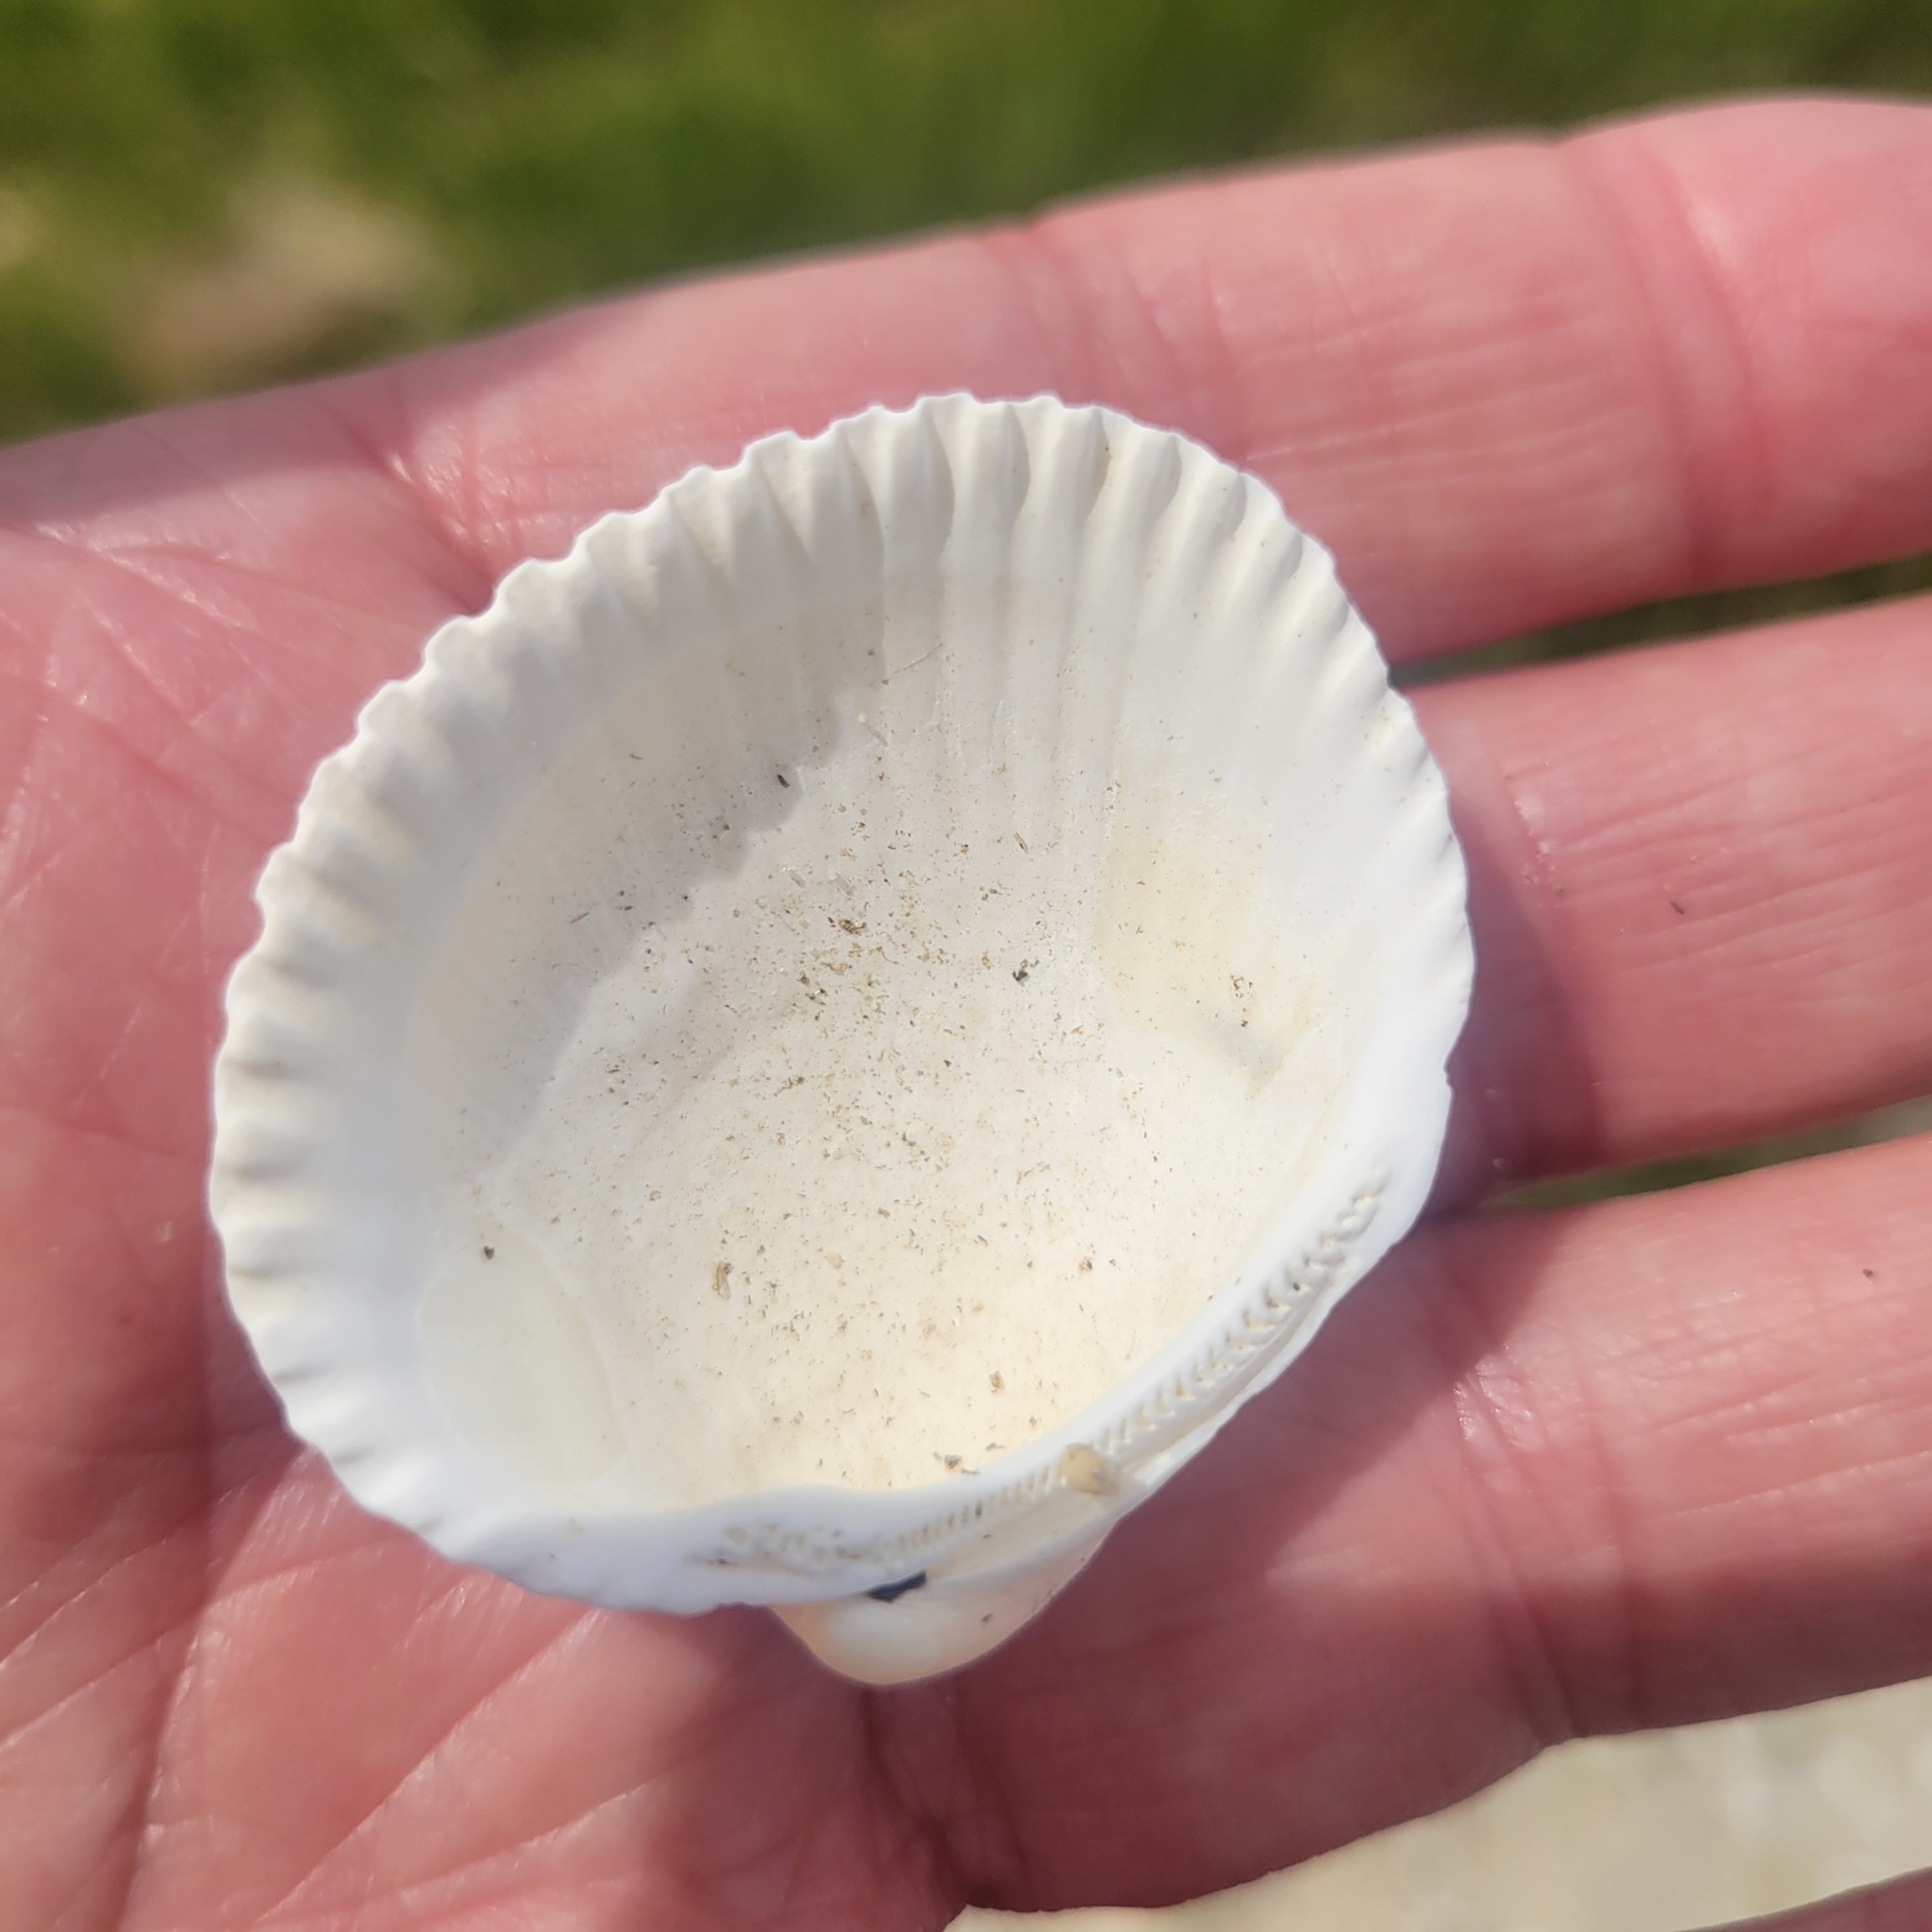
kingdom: Animalia
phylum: Mollusca
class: Bivalvia
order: Arcida
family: Arcidae
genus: Lunarca
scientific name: Lunarca ovalis
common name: Blood ark
